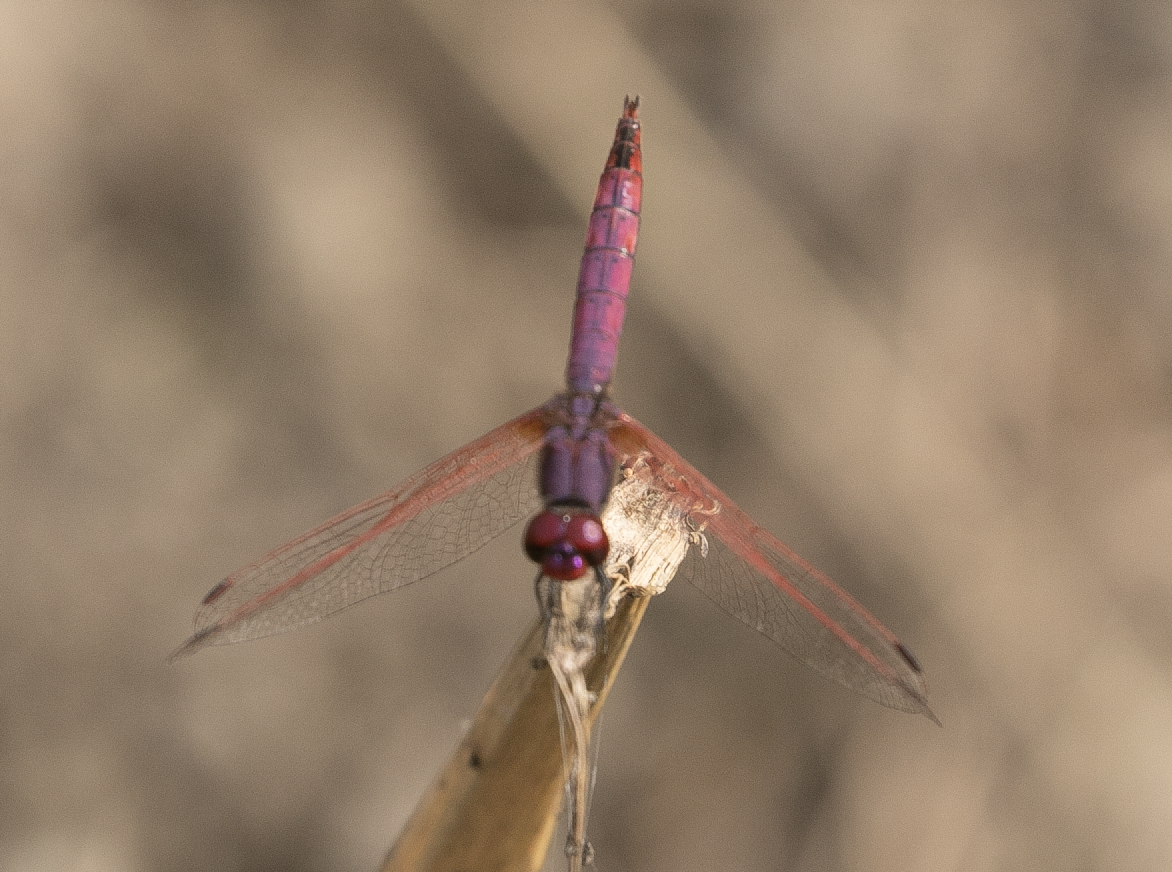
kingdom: Animalia
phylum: Arthropoda
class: Insecta
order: Odonata
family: Libellulidae
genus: Trithemis
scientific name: Trithemis annulata
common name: Violet dropwing
